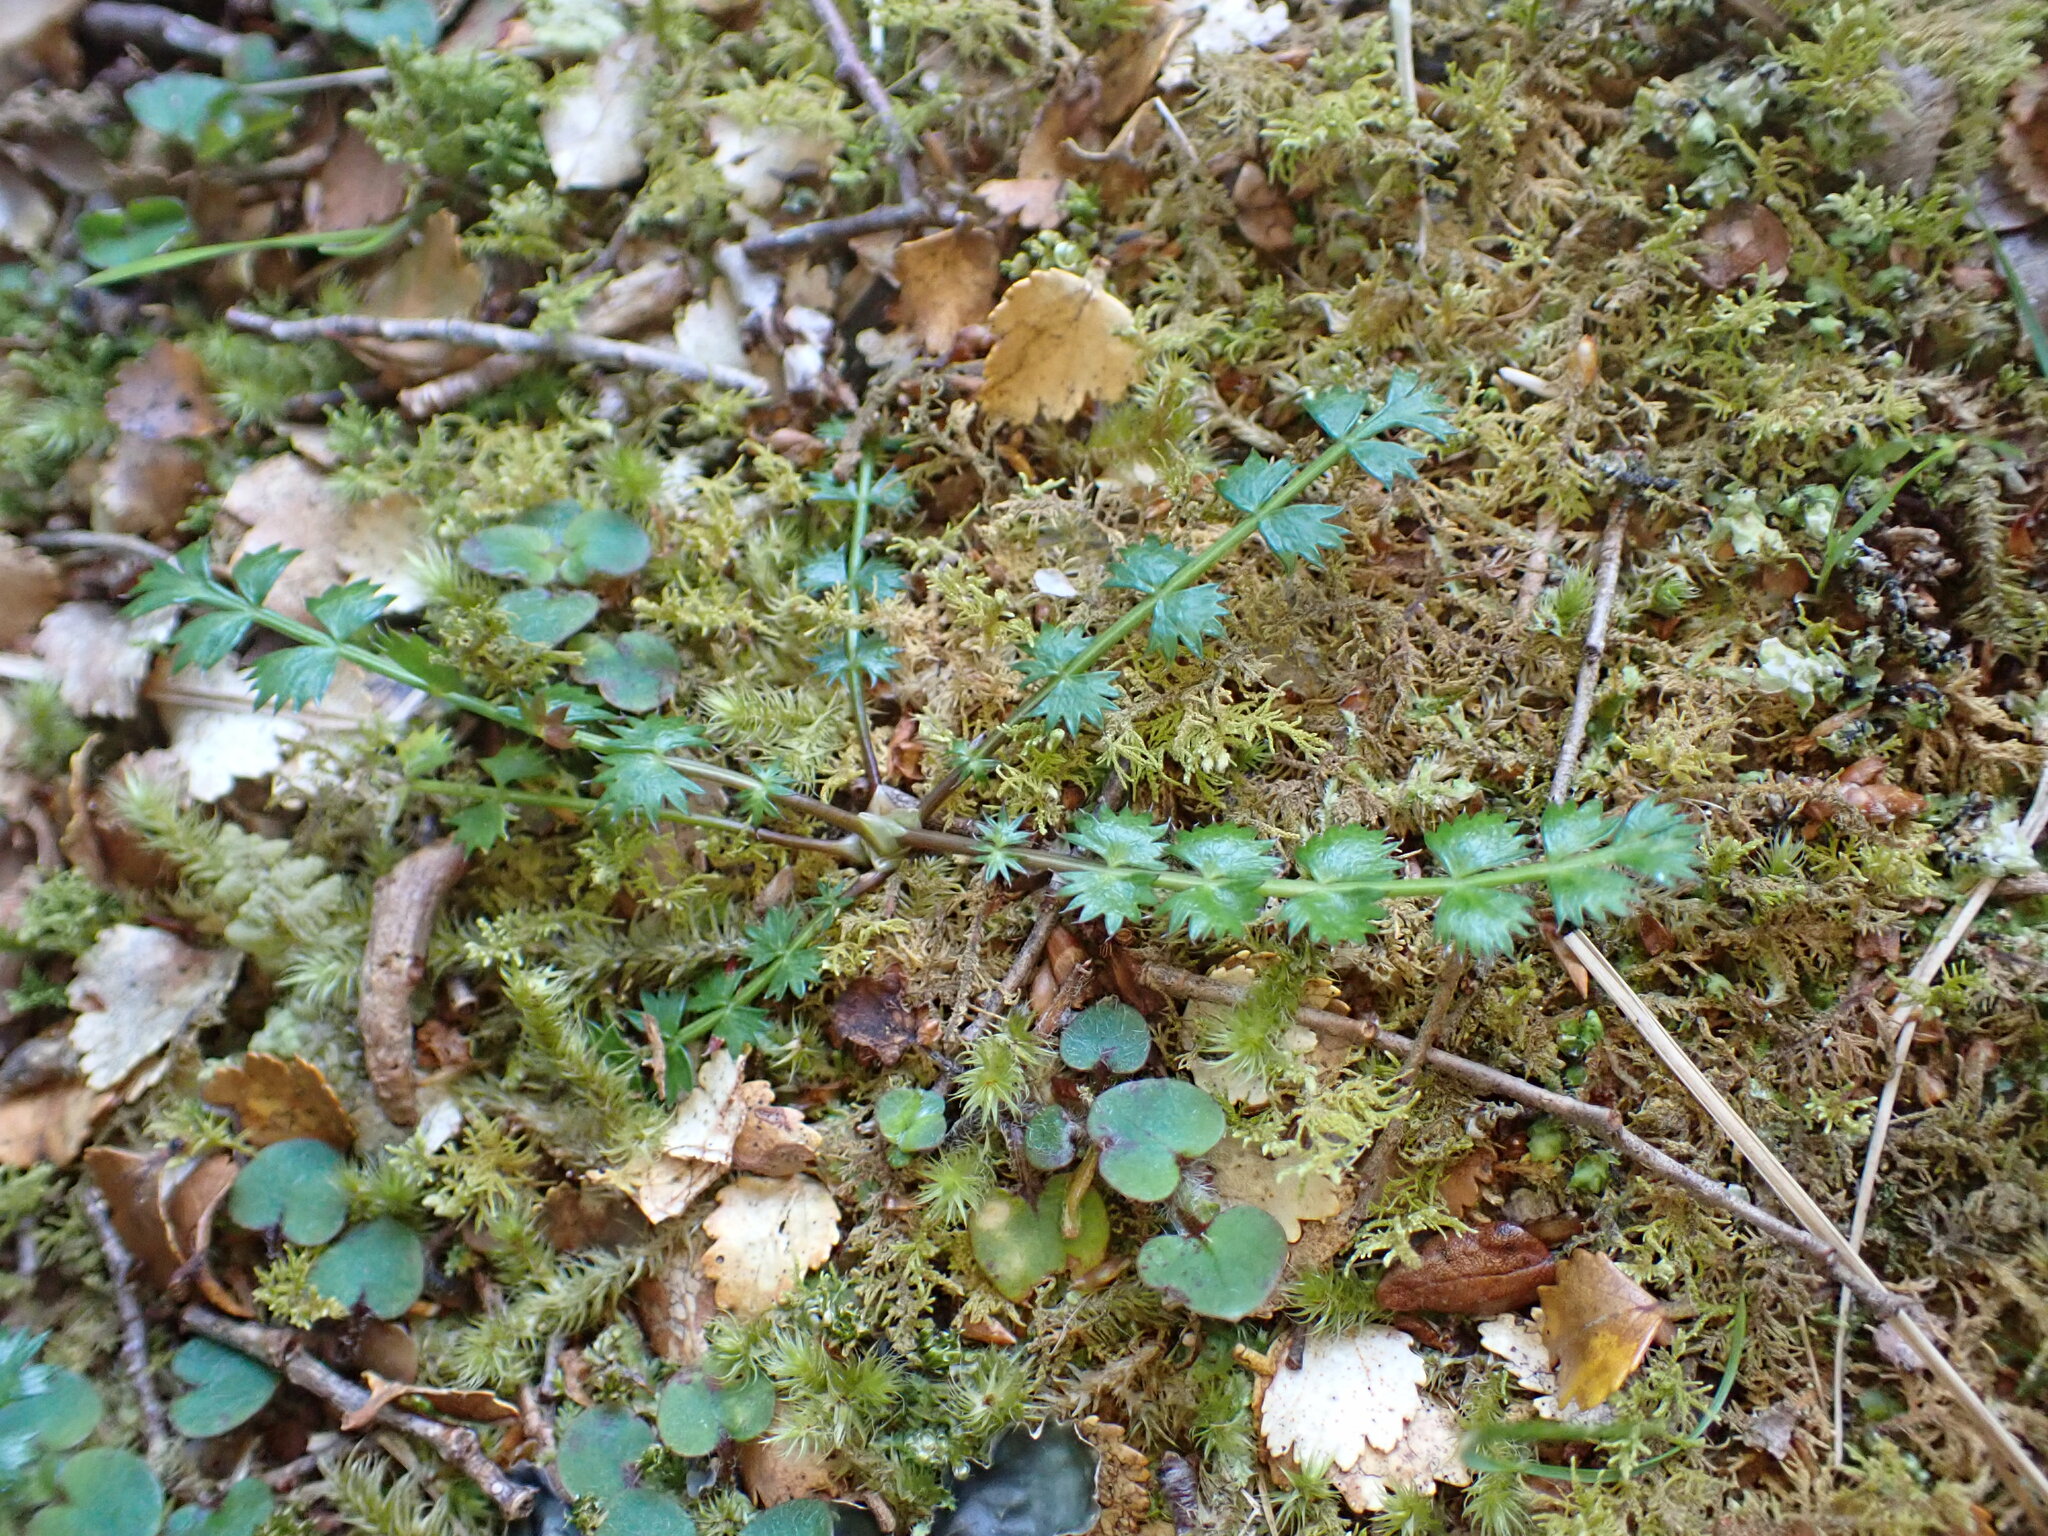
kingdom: Plantae
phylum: Tracheophyta
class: Magnoliopsida
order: Apiales
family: Apiaceae
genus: Anisotome
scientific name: Anisotome aromatica
